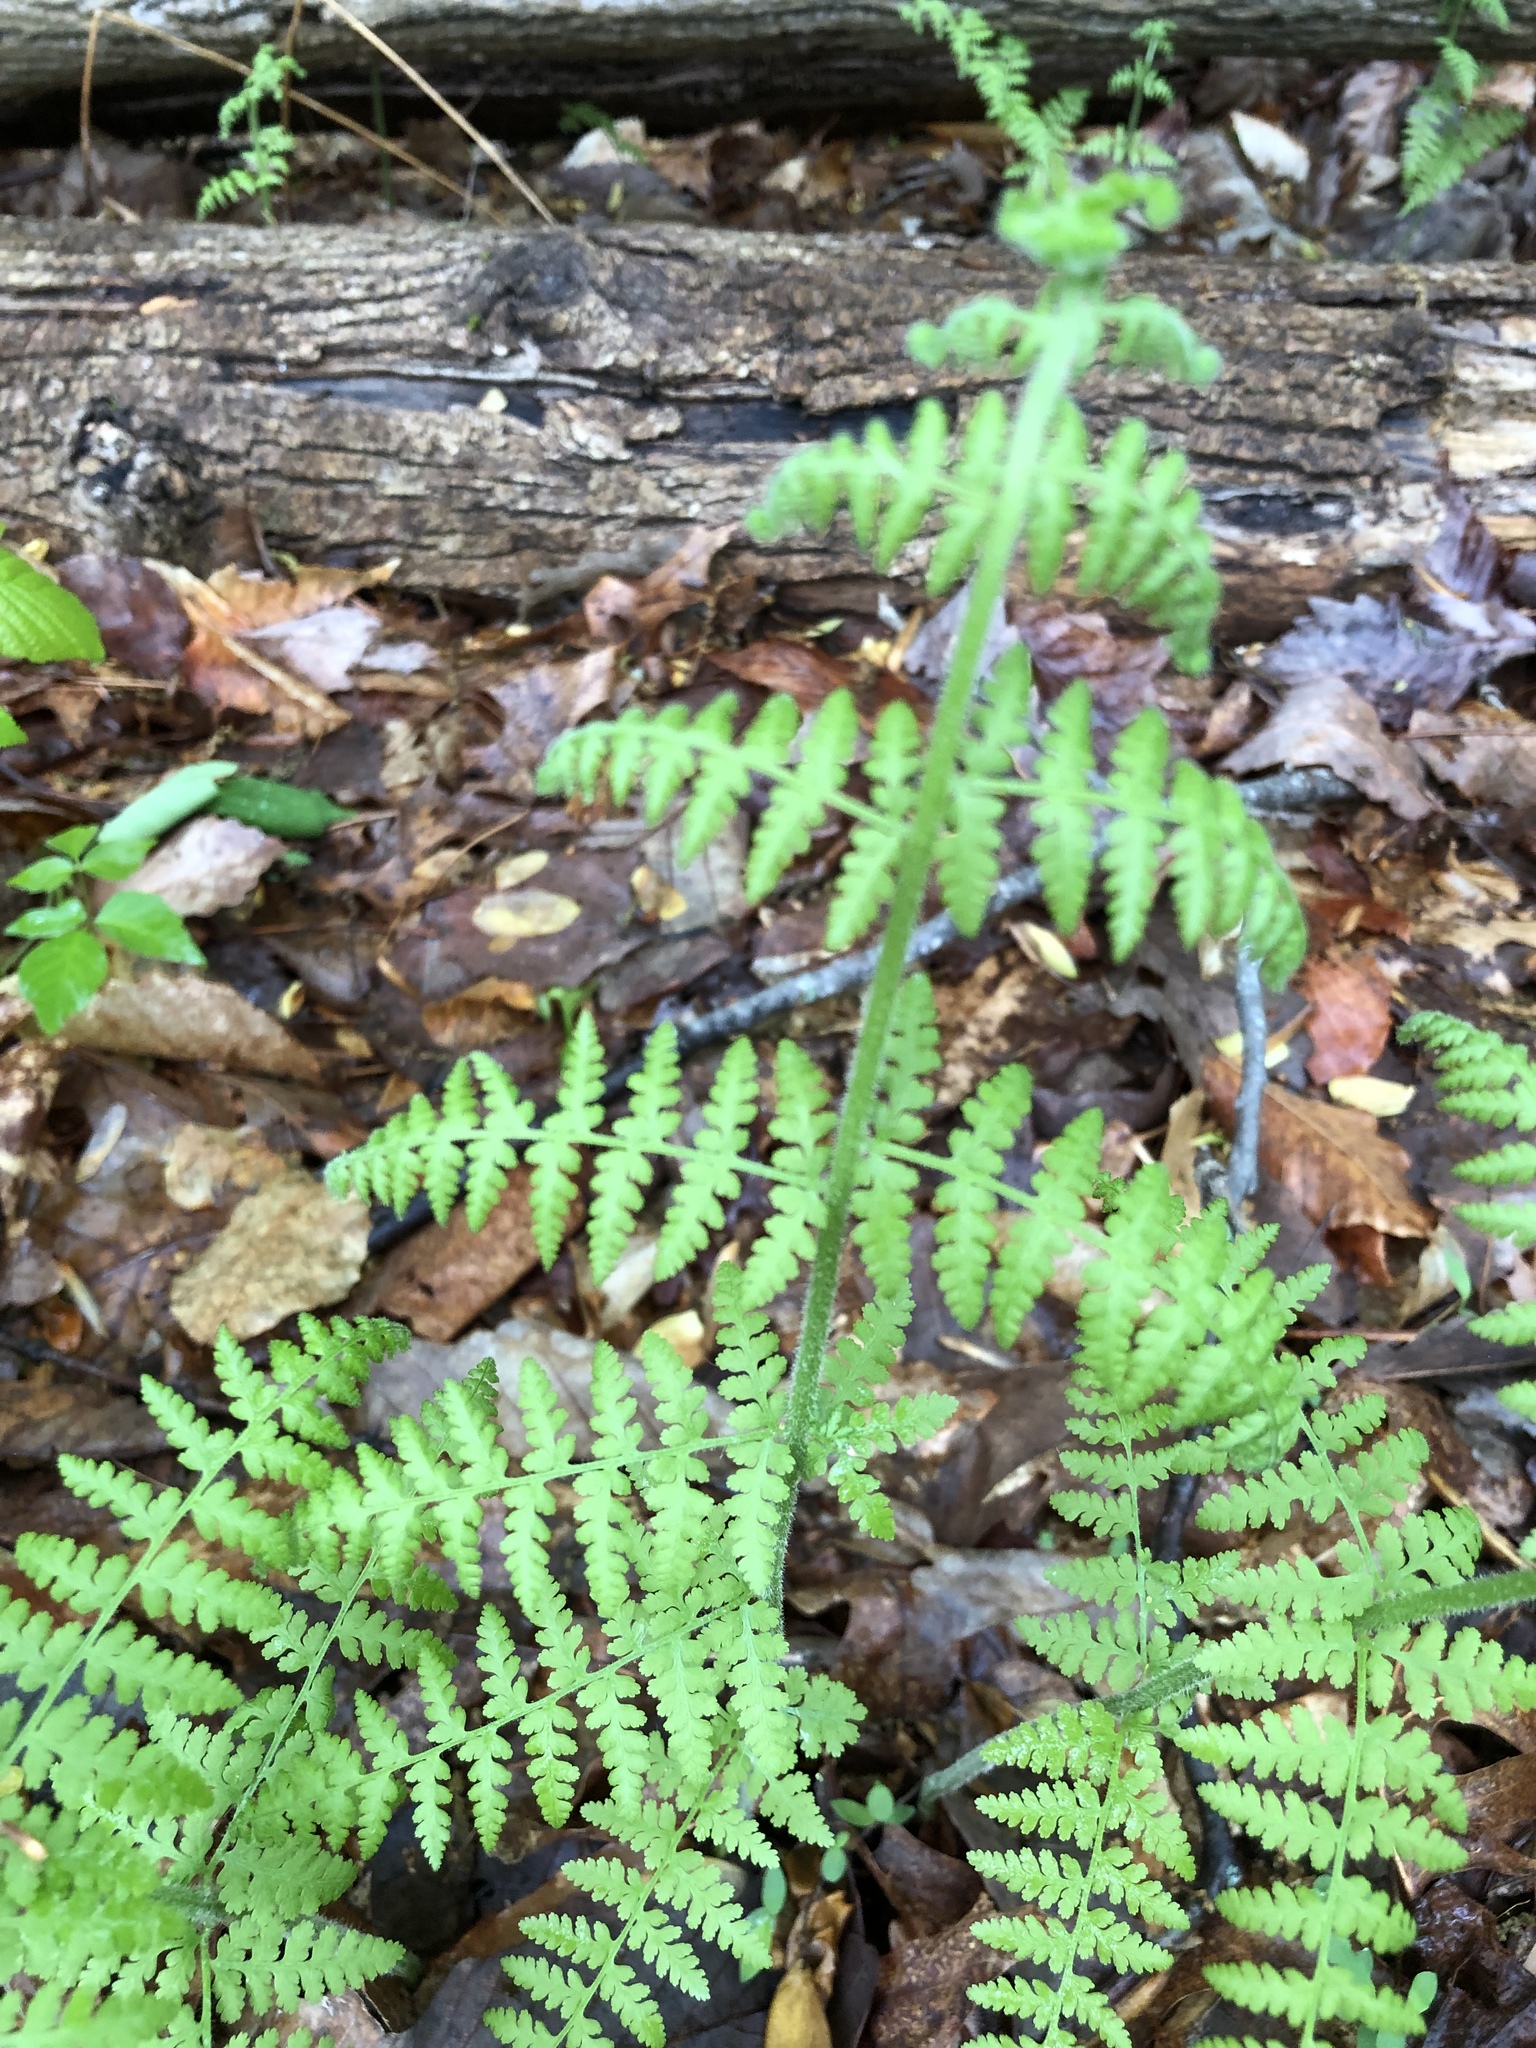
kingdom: Plantae
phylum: Tracheophyta
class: Polypodiopsida
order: Polypodiales
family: Dennstaedtiaceae
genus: Sitobolium
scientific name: Sitobolium punctilobum
